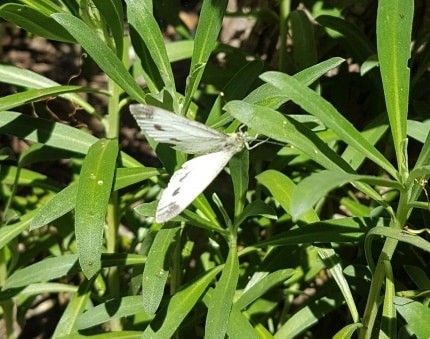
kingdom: Animalia
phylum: Arthropoda
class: Insecta
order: Lepidoptera
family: Pieridae
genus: Pieris
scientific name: Pieris napi
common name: Green-veined white
